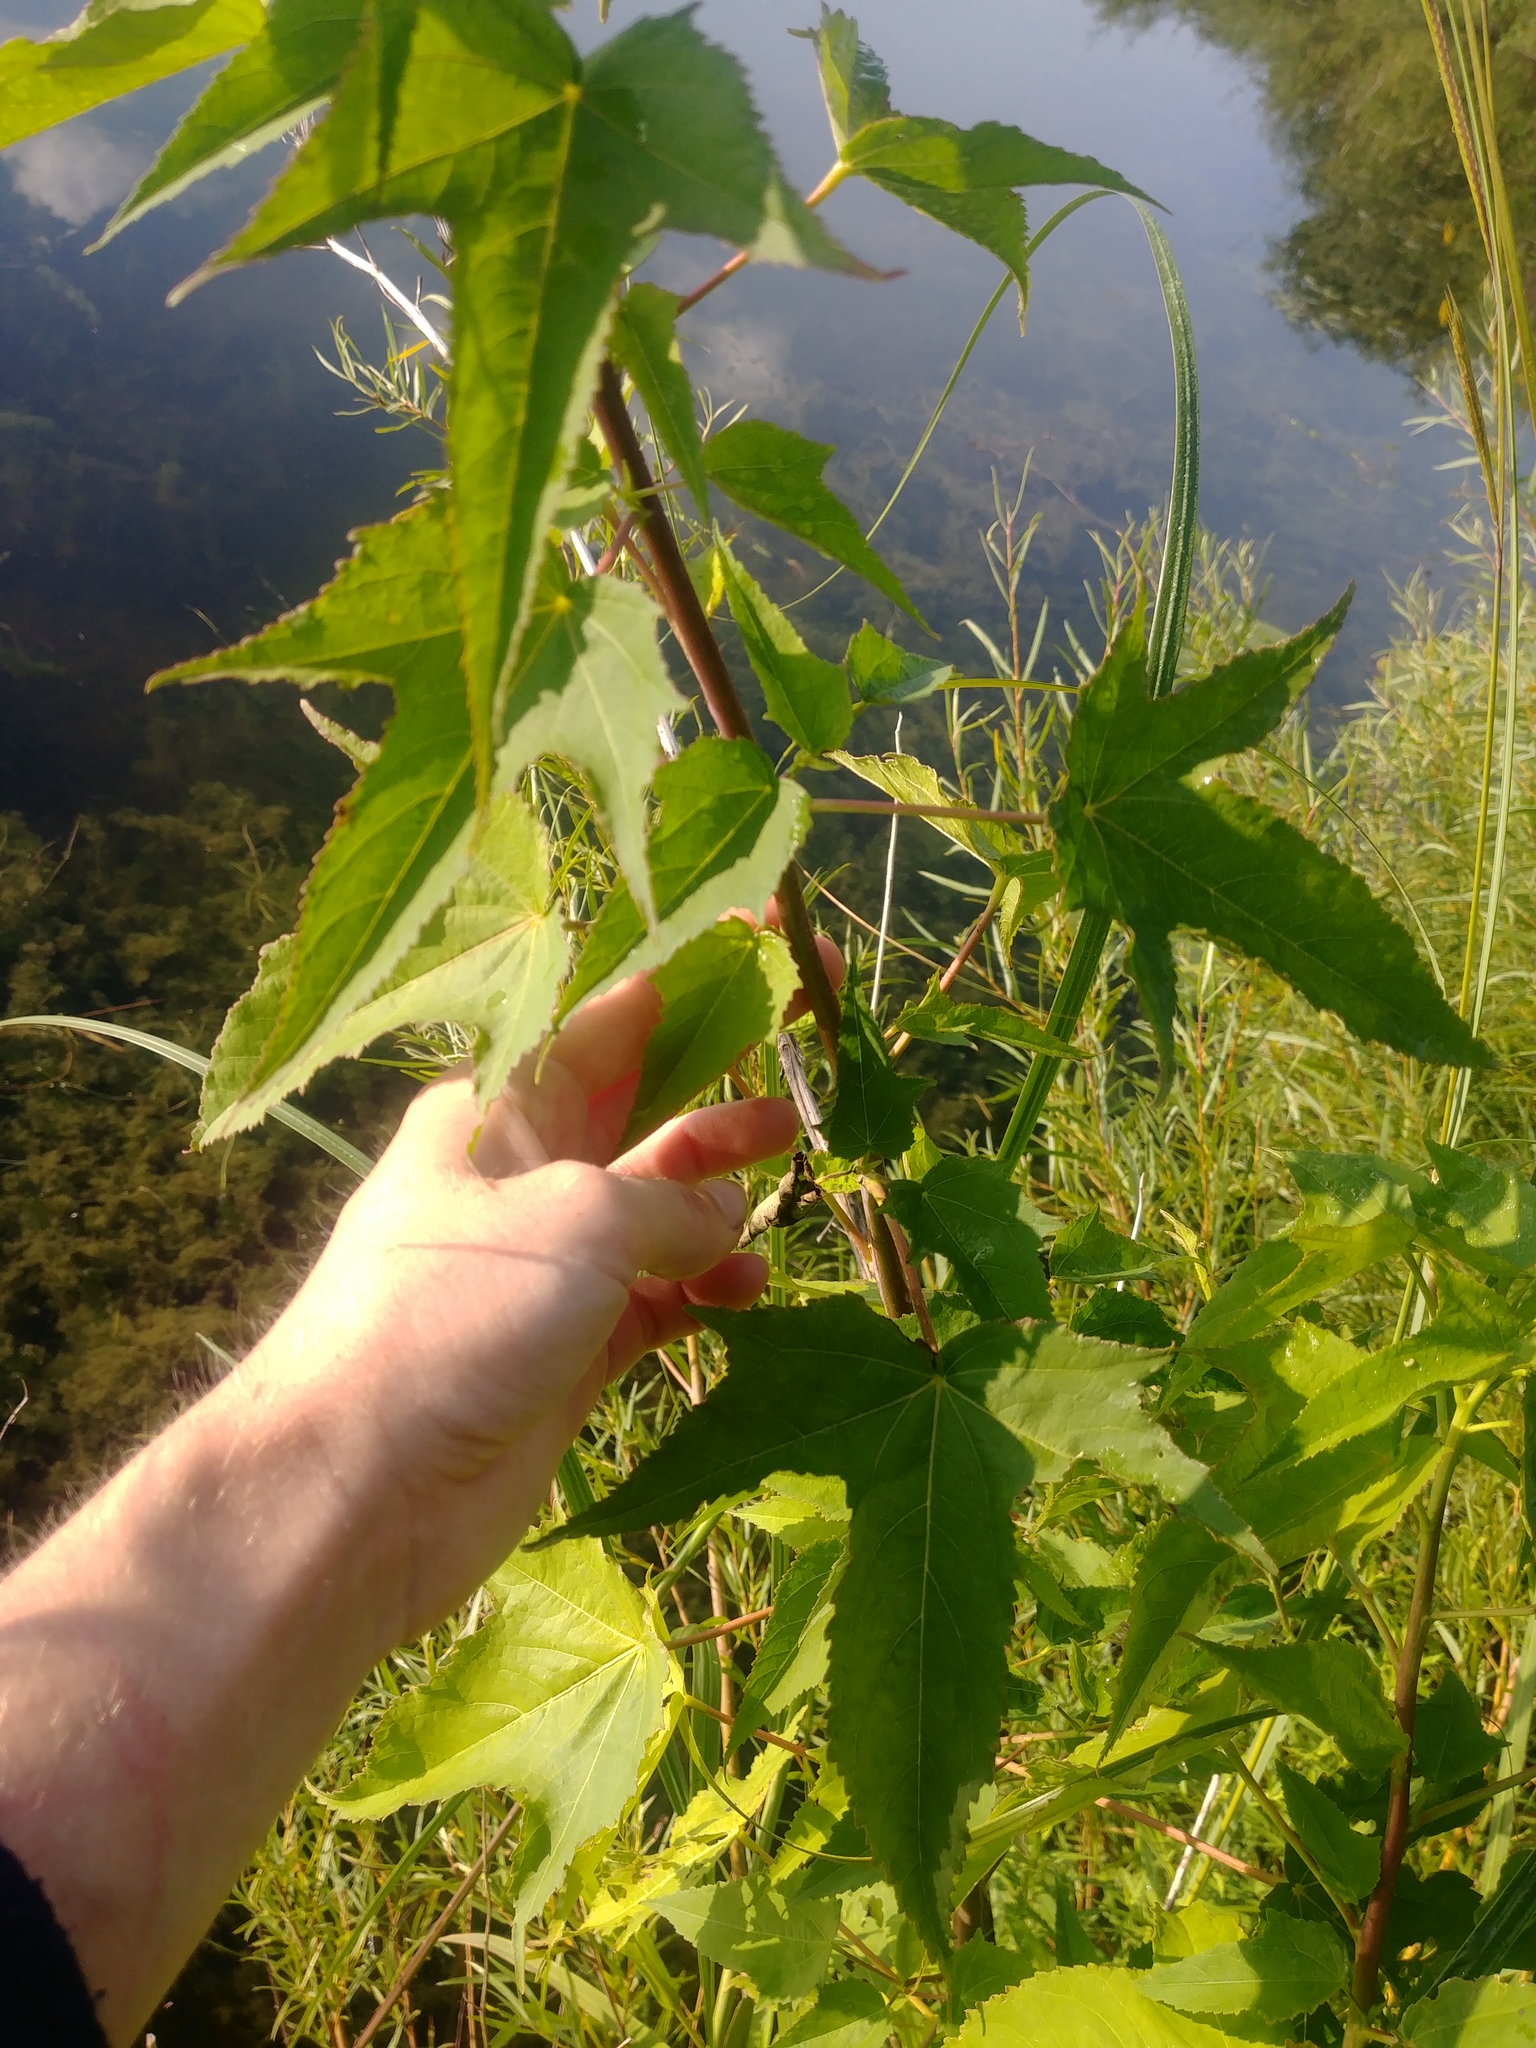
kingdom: Plantae
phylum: Tracheophyta
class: Magnoliopsida
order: Malvales
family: Malvaceae
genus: Hibiscus
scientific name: Hibiscus laevis
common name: Scarlet rose-mallow
